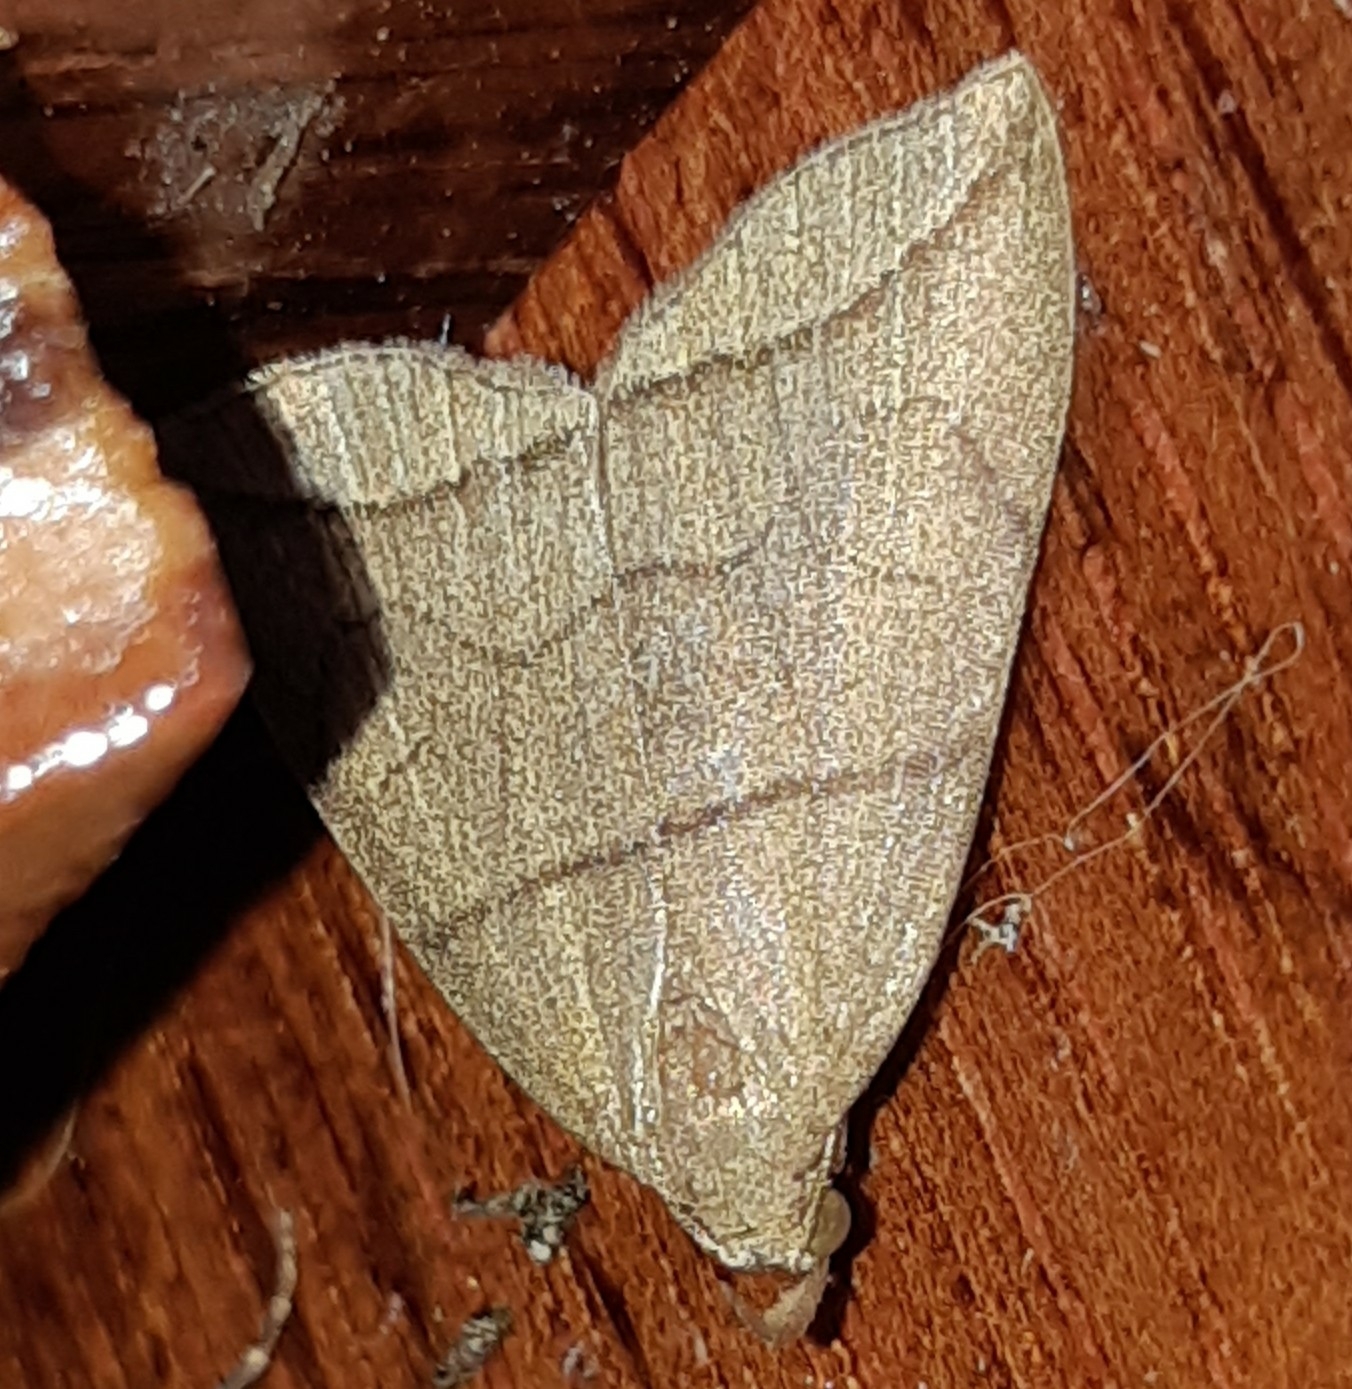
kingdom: Animalia
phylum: Arthropoda
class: Insecta
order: Lepidoptera
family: Erebidae
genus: Herminia
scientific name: Herminia grisealis
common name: Small fan-foot
